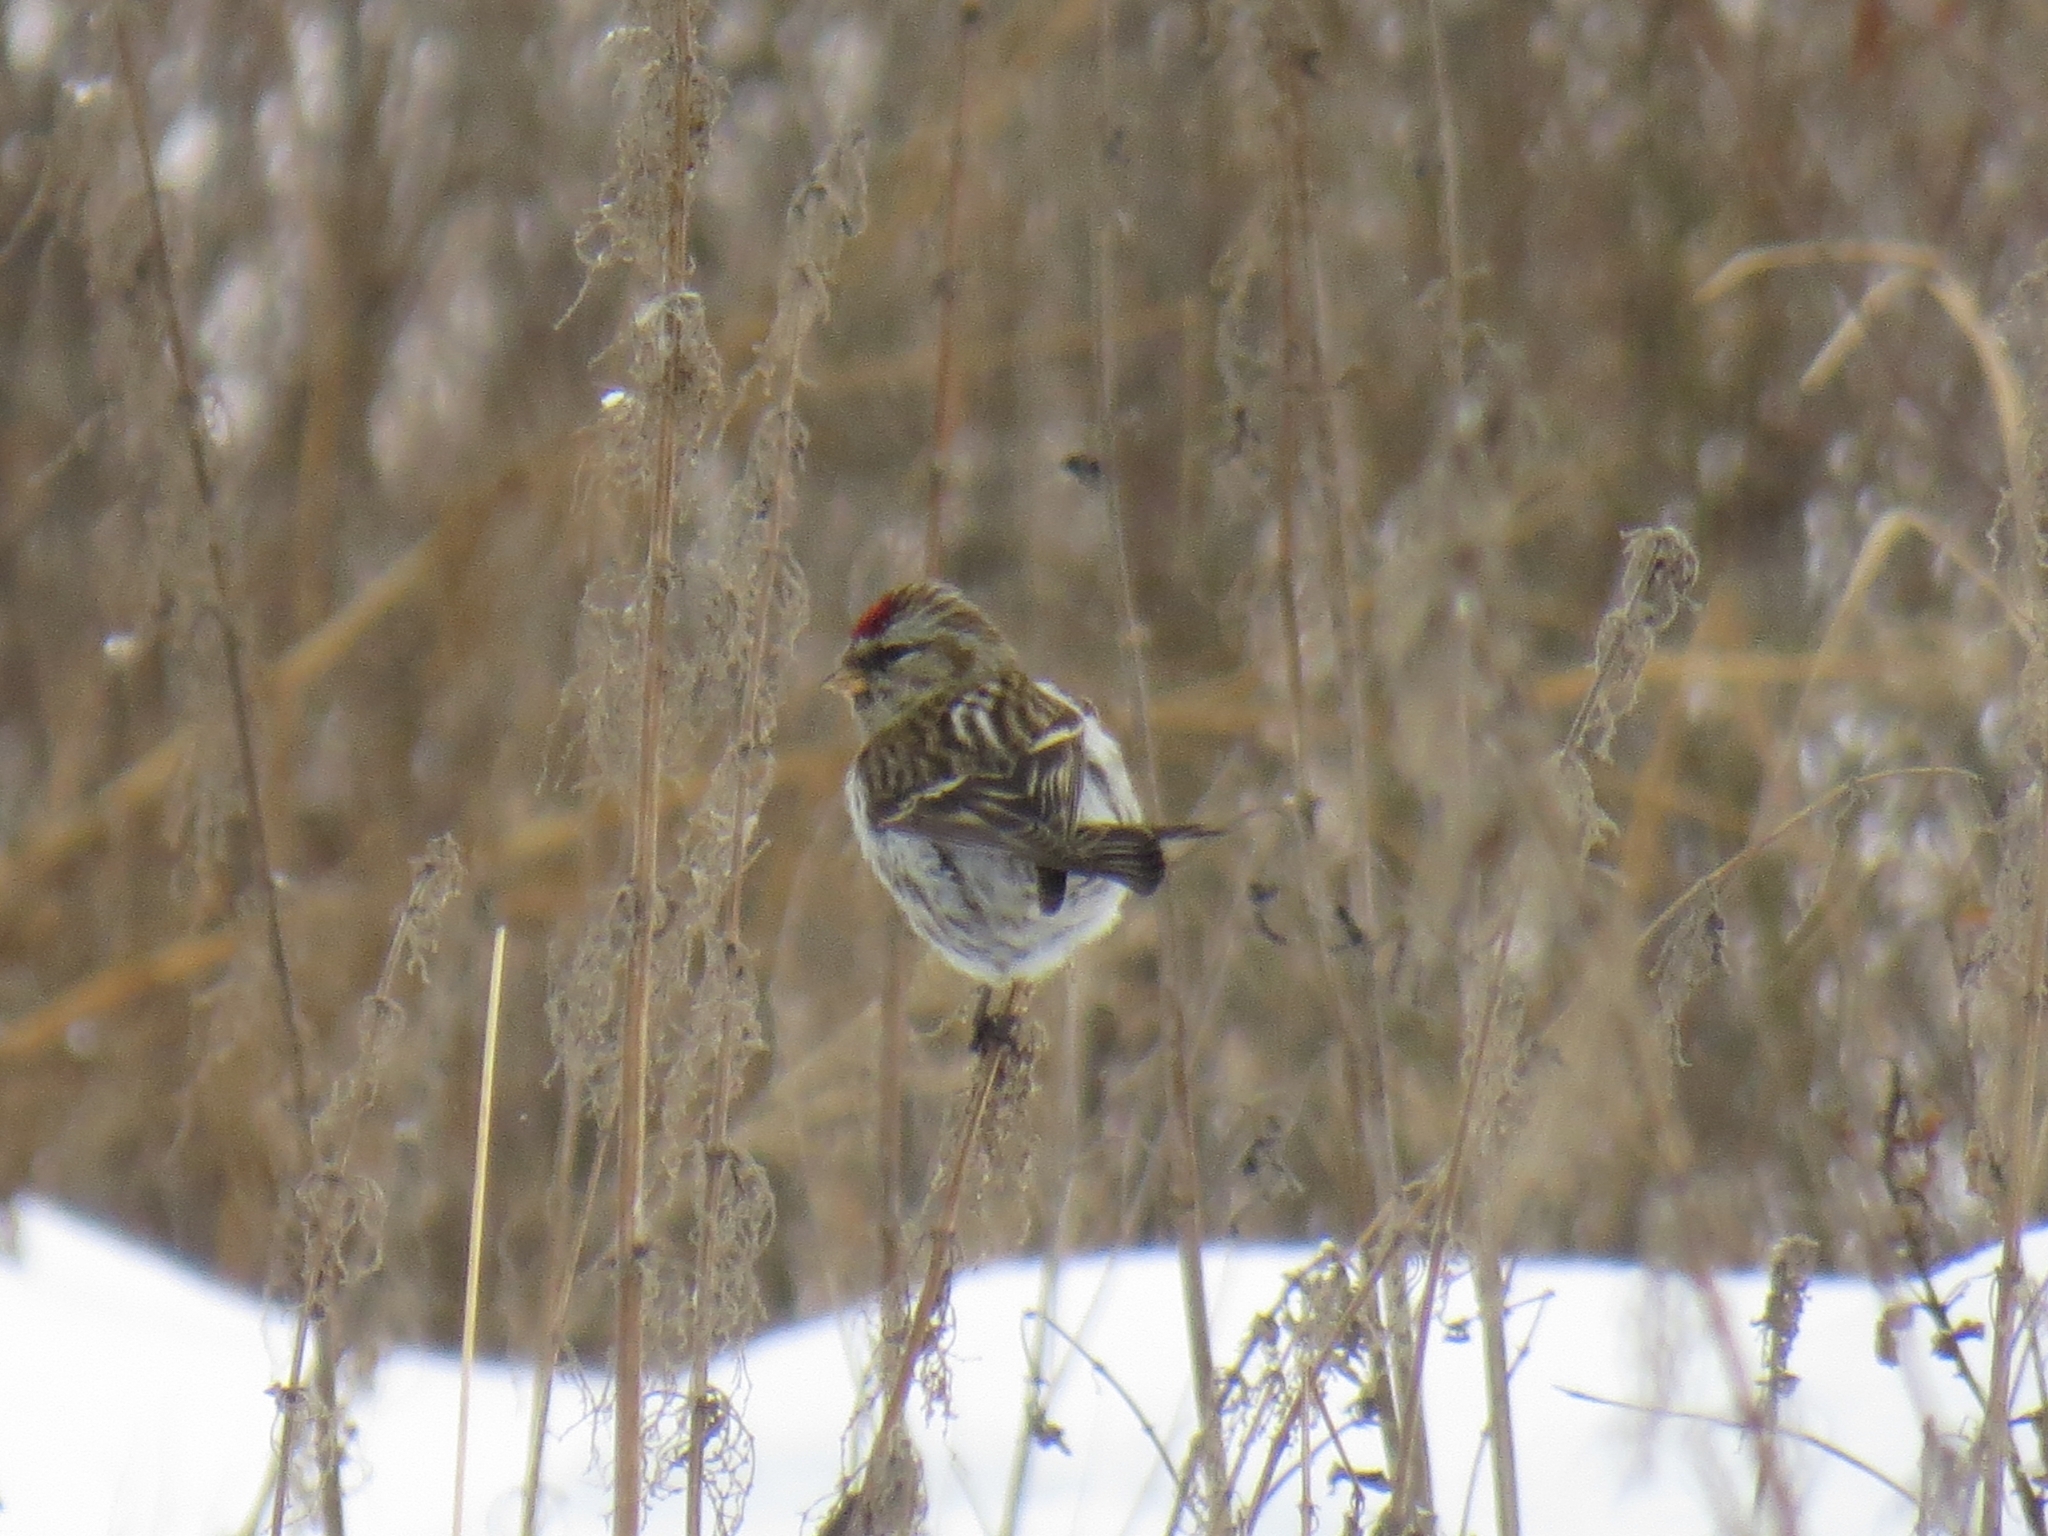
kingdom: Animalia
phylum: Chordata
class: Aves
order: Passeriformes
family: Fringillidae
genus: Acanthis
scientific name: Acanthis flammea
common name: Common redpoll
